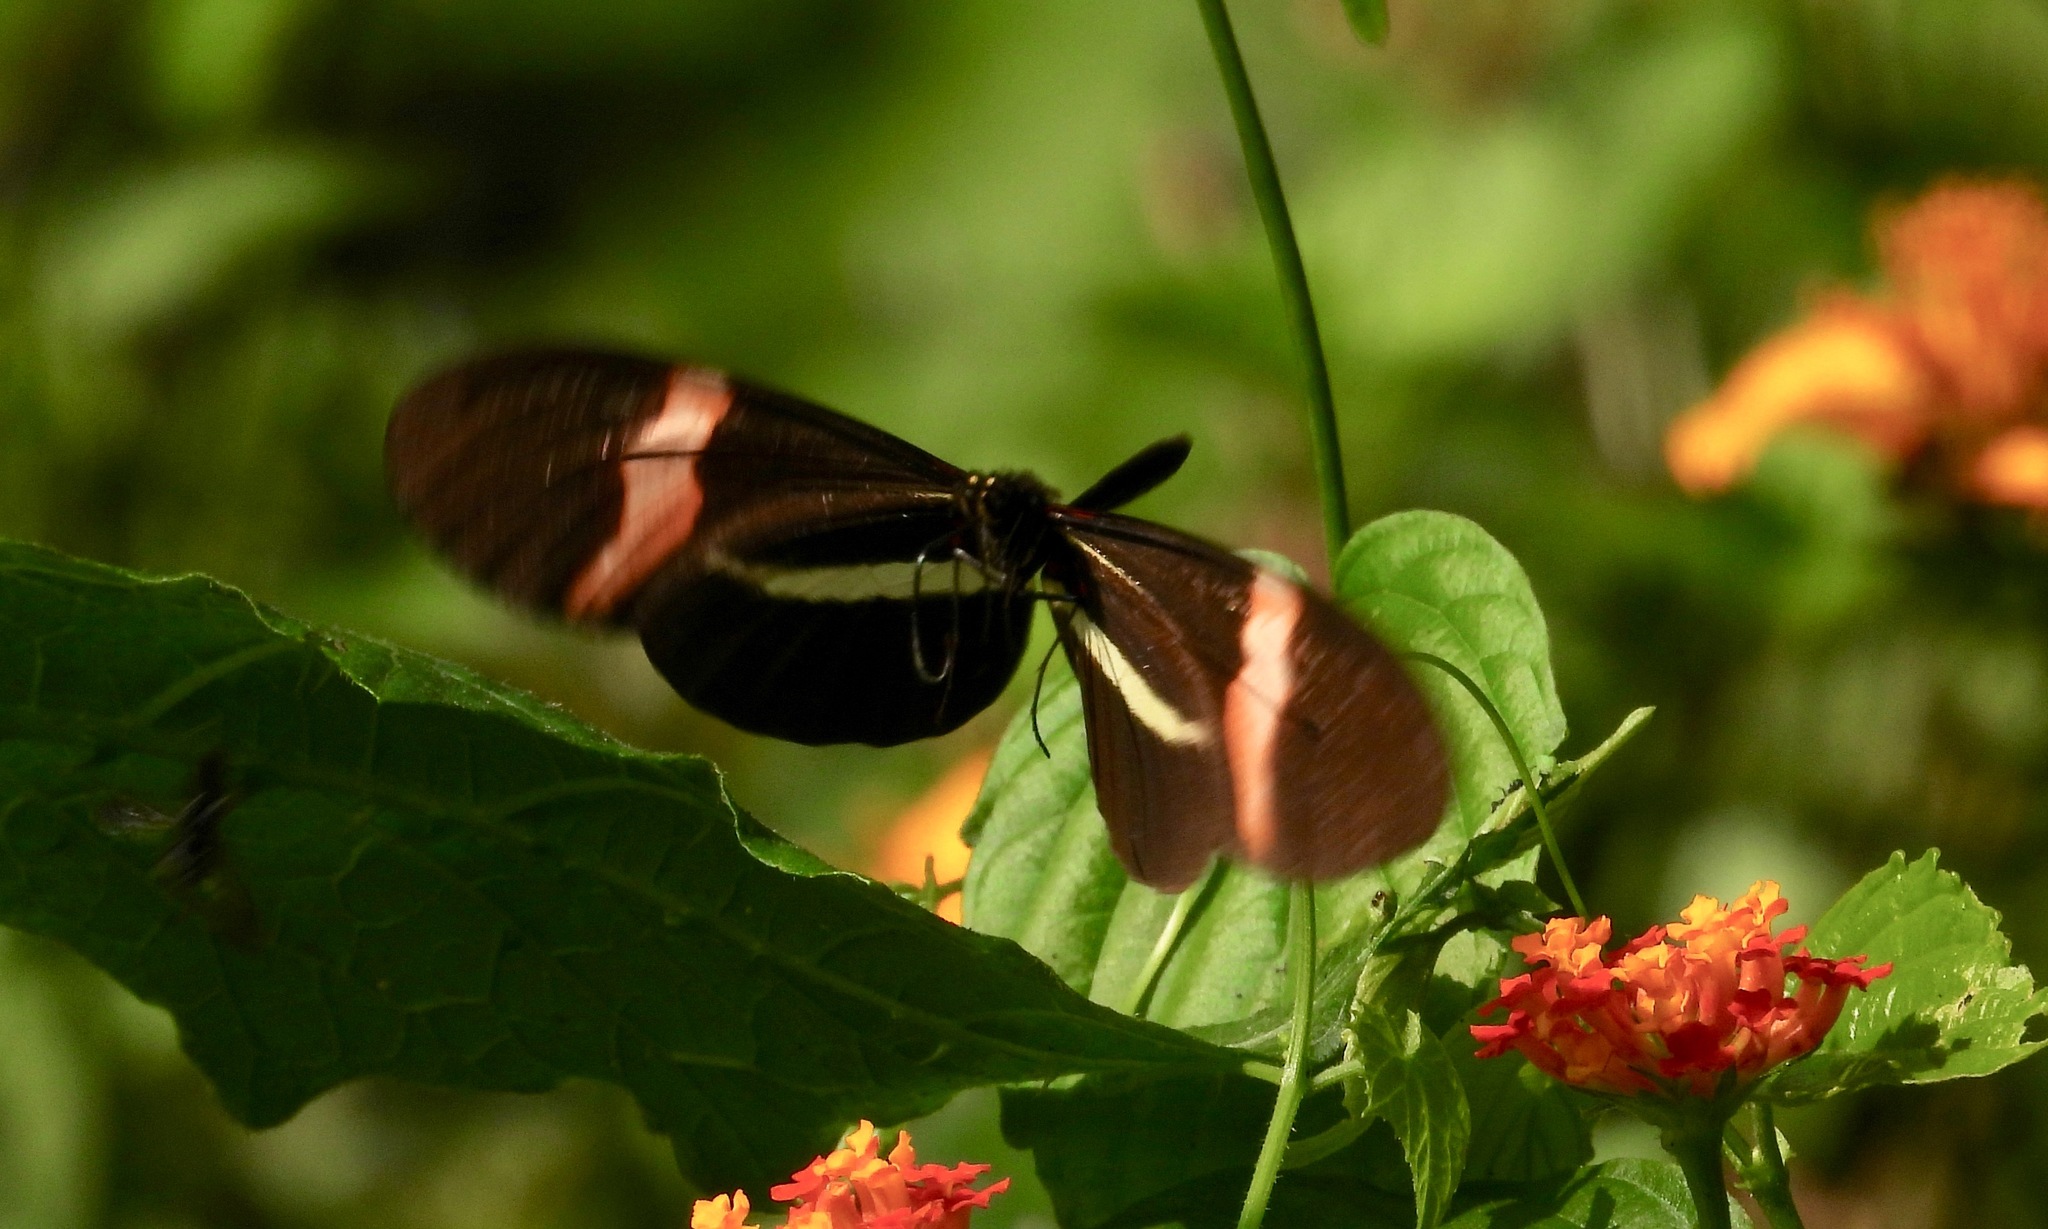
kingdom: Animalia
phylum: Arthropoda
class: Insecta
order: Lepidoptera
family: Nymphalidae
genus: Heliconius
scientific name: Heliconius erato
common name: Common patch longwing
